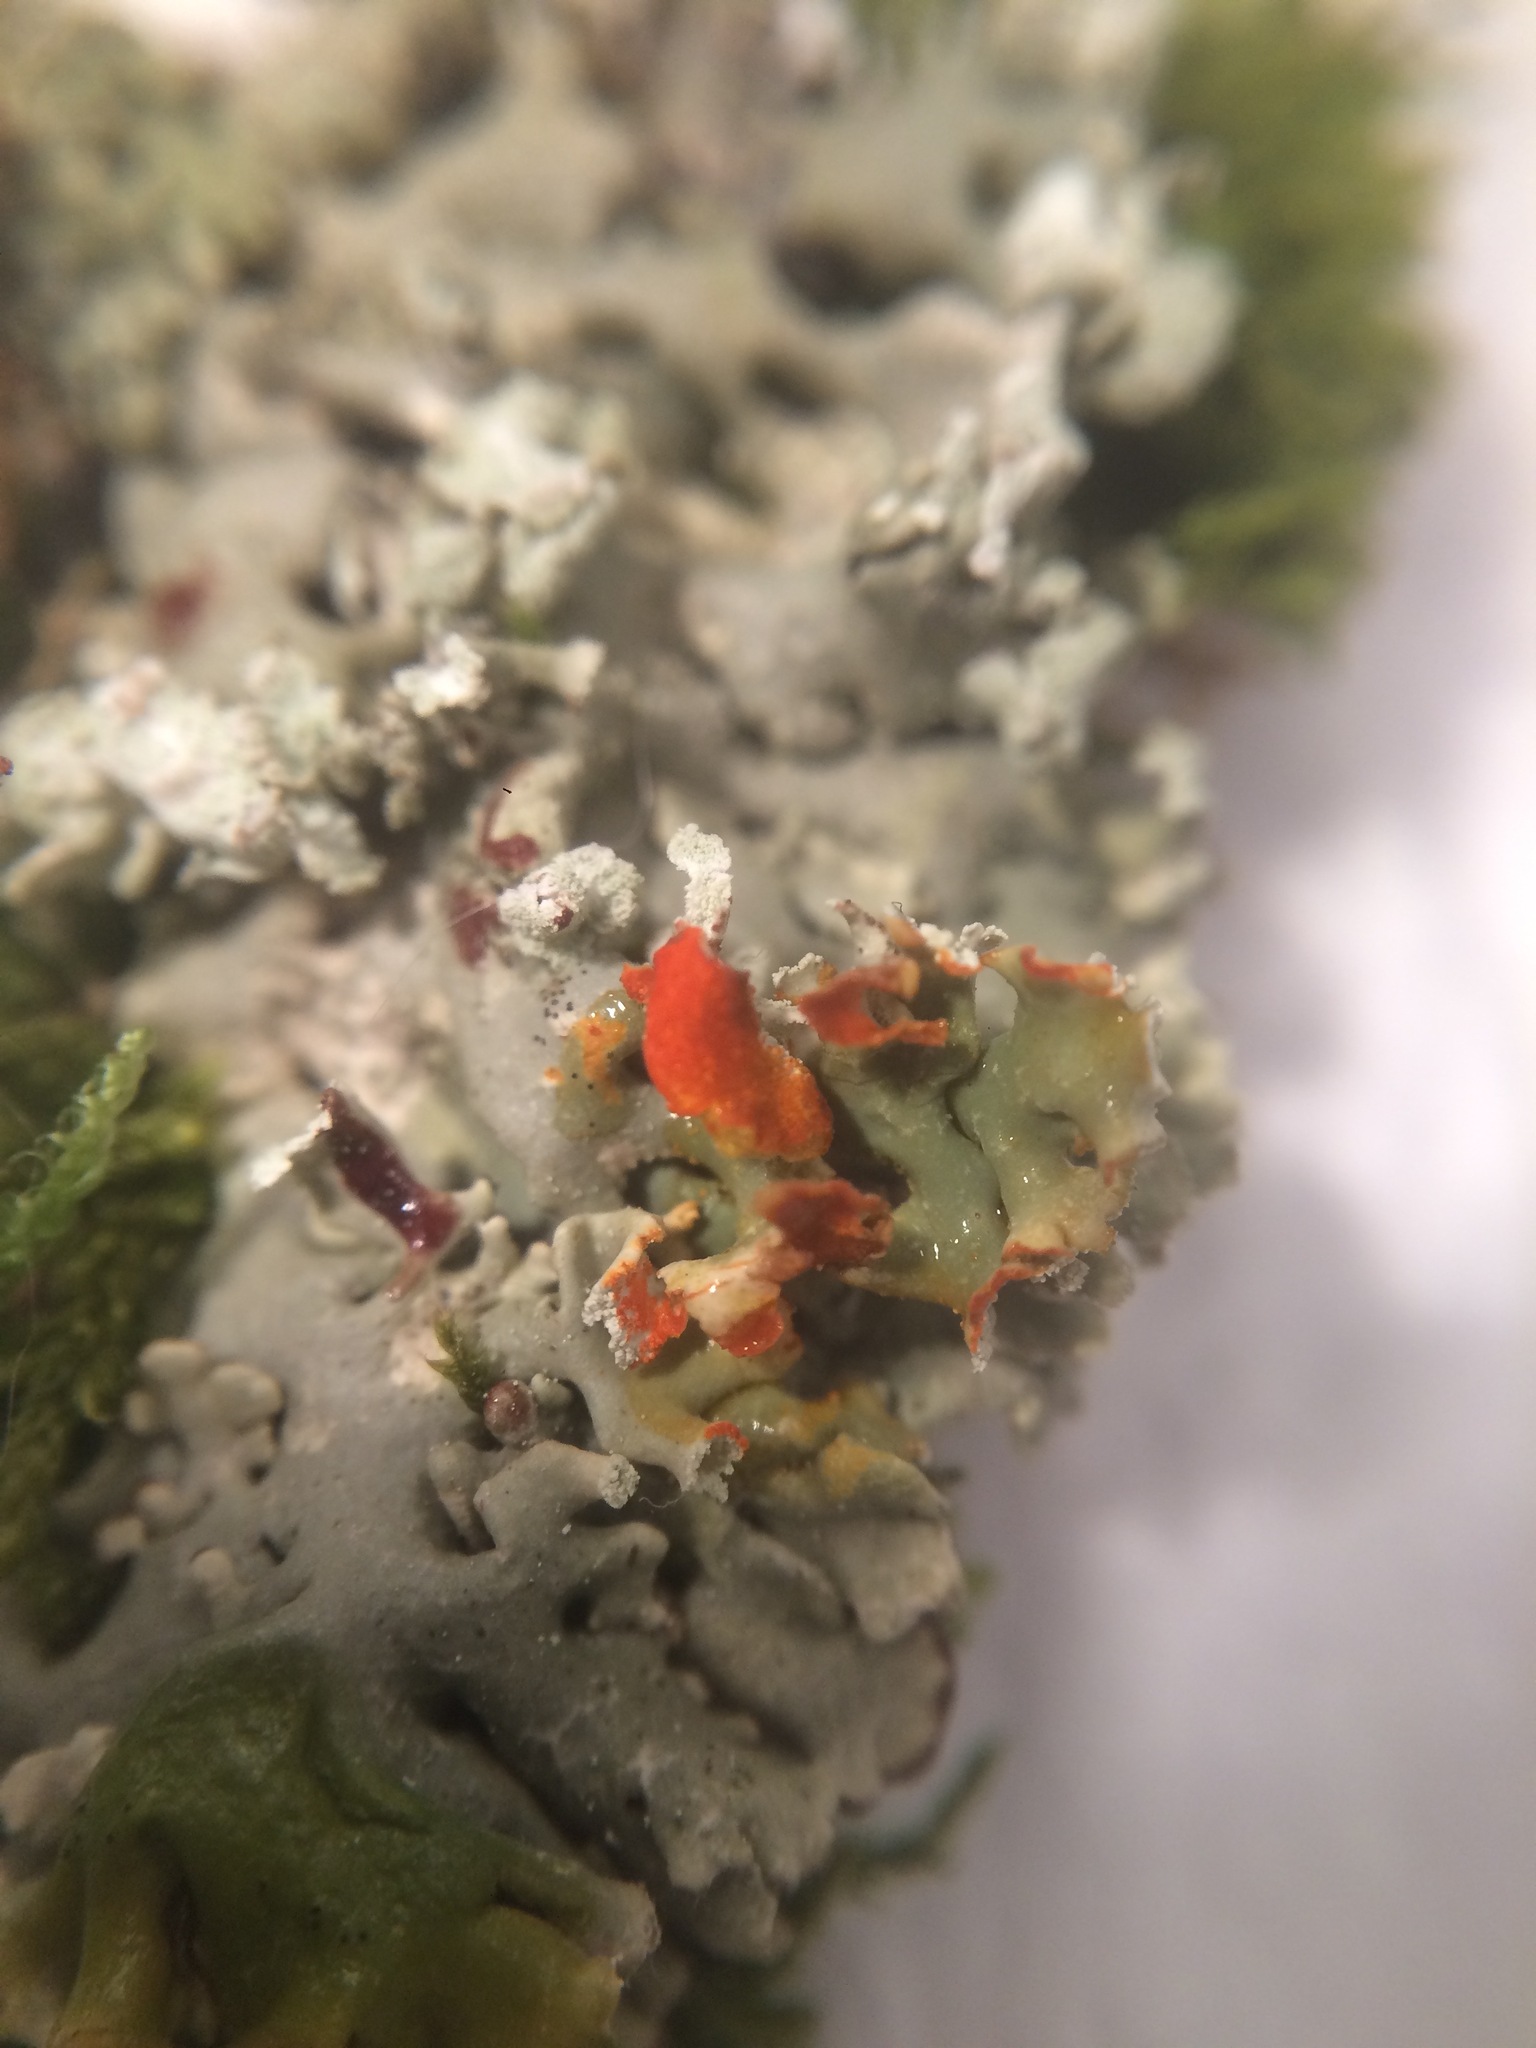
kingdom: Fungi
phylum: Ascomycota
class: Lecanoromycetes
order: Lecanorales
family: Parmeliaceae
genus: Hypogymnia
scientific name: Hypogymnia physodes
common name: Dark crottle
